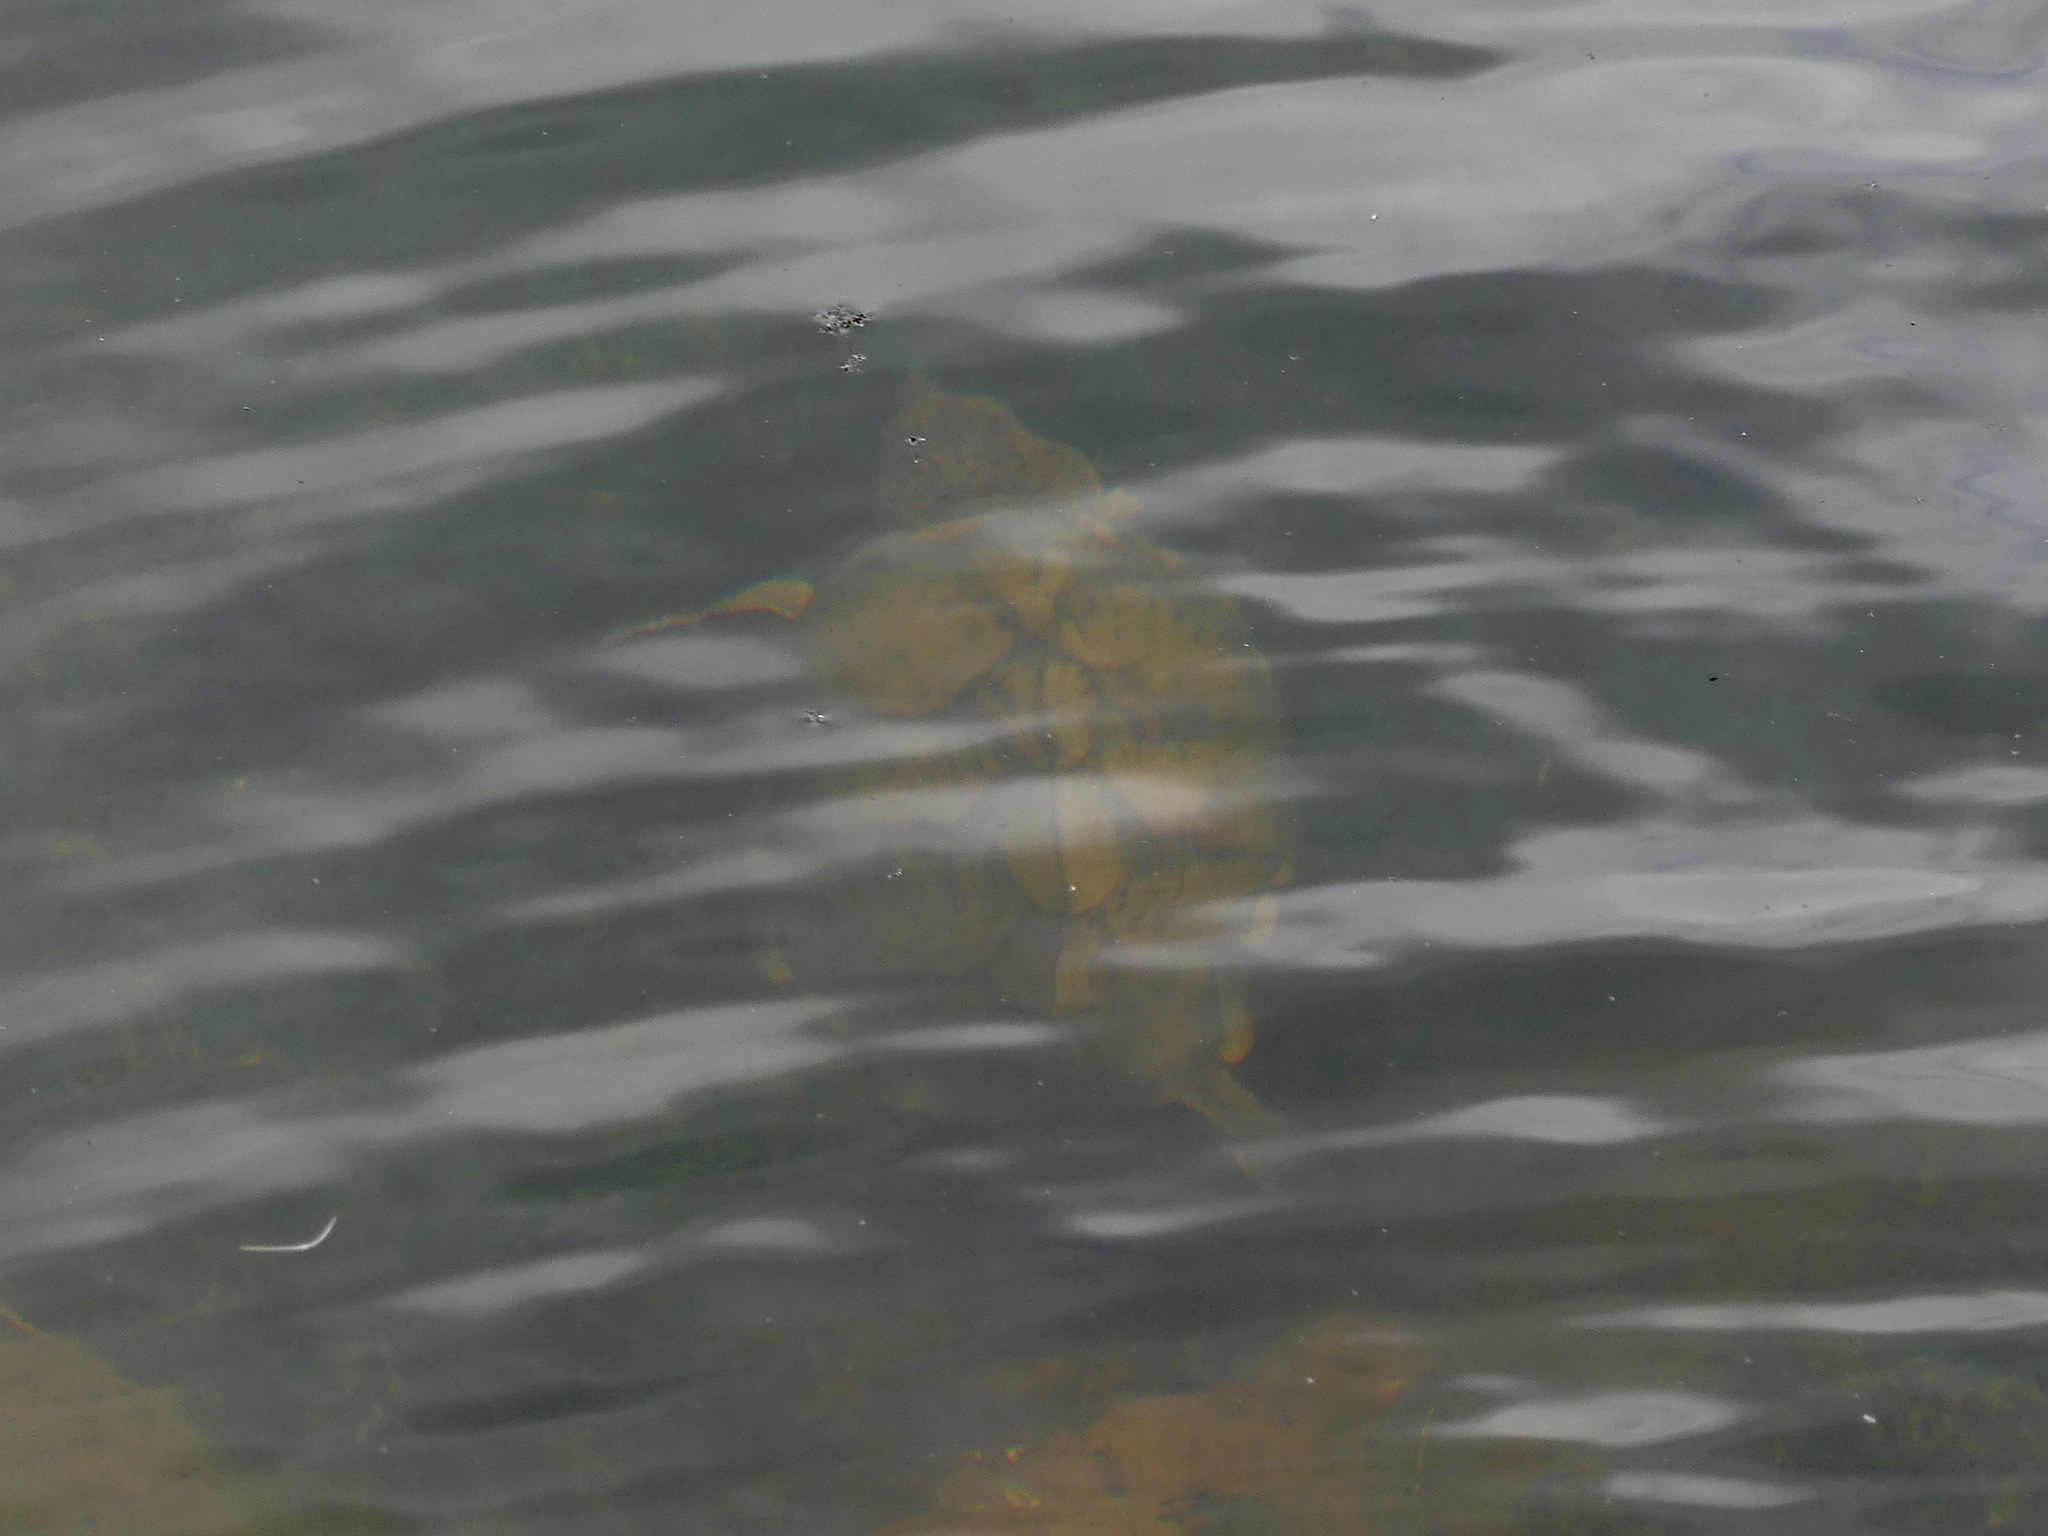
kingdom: Animalia
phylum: Chordata
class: Testudines
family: Kinosternidae
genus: Sternotherus
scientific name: Sternotherus carinatus
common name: Razor-backed musk turtle
